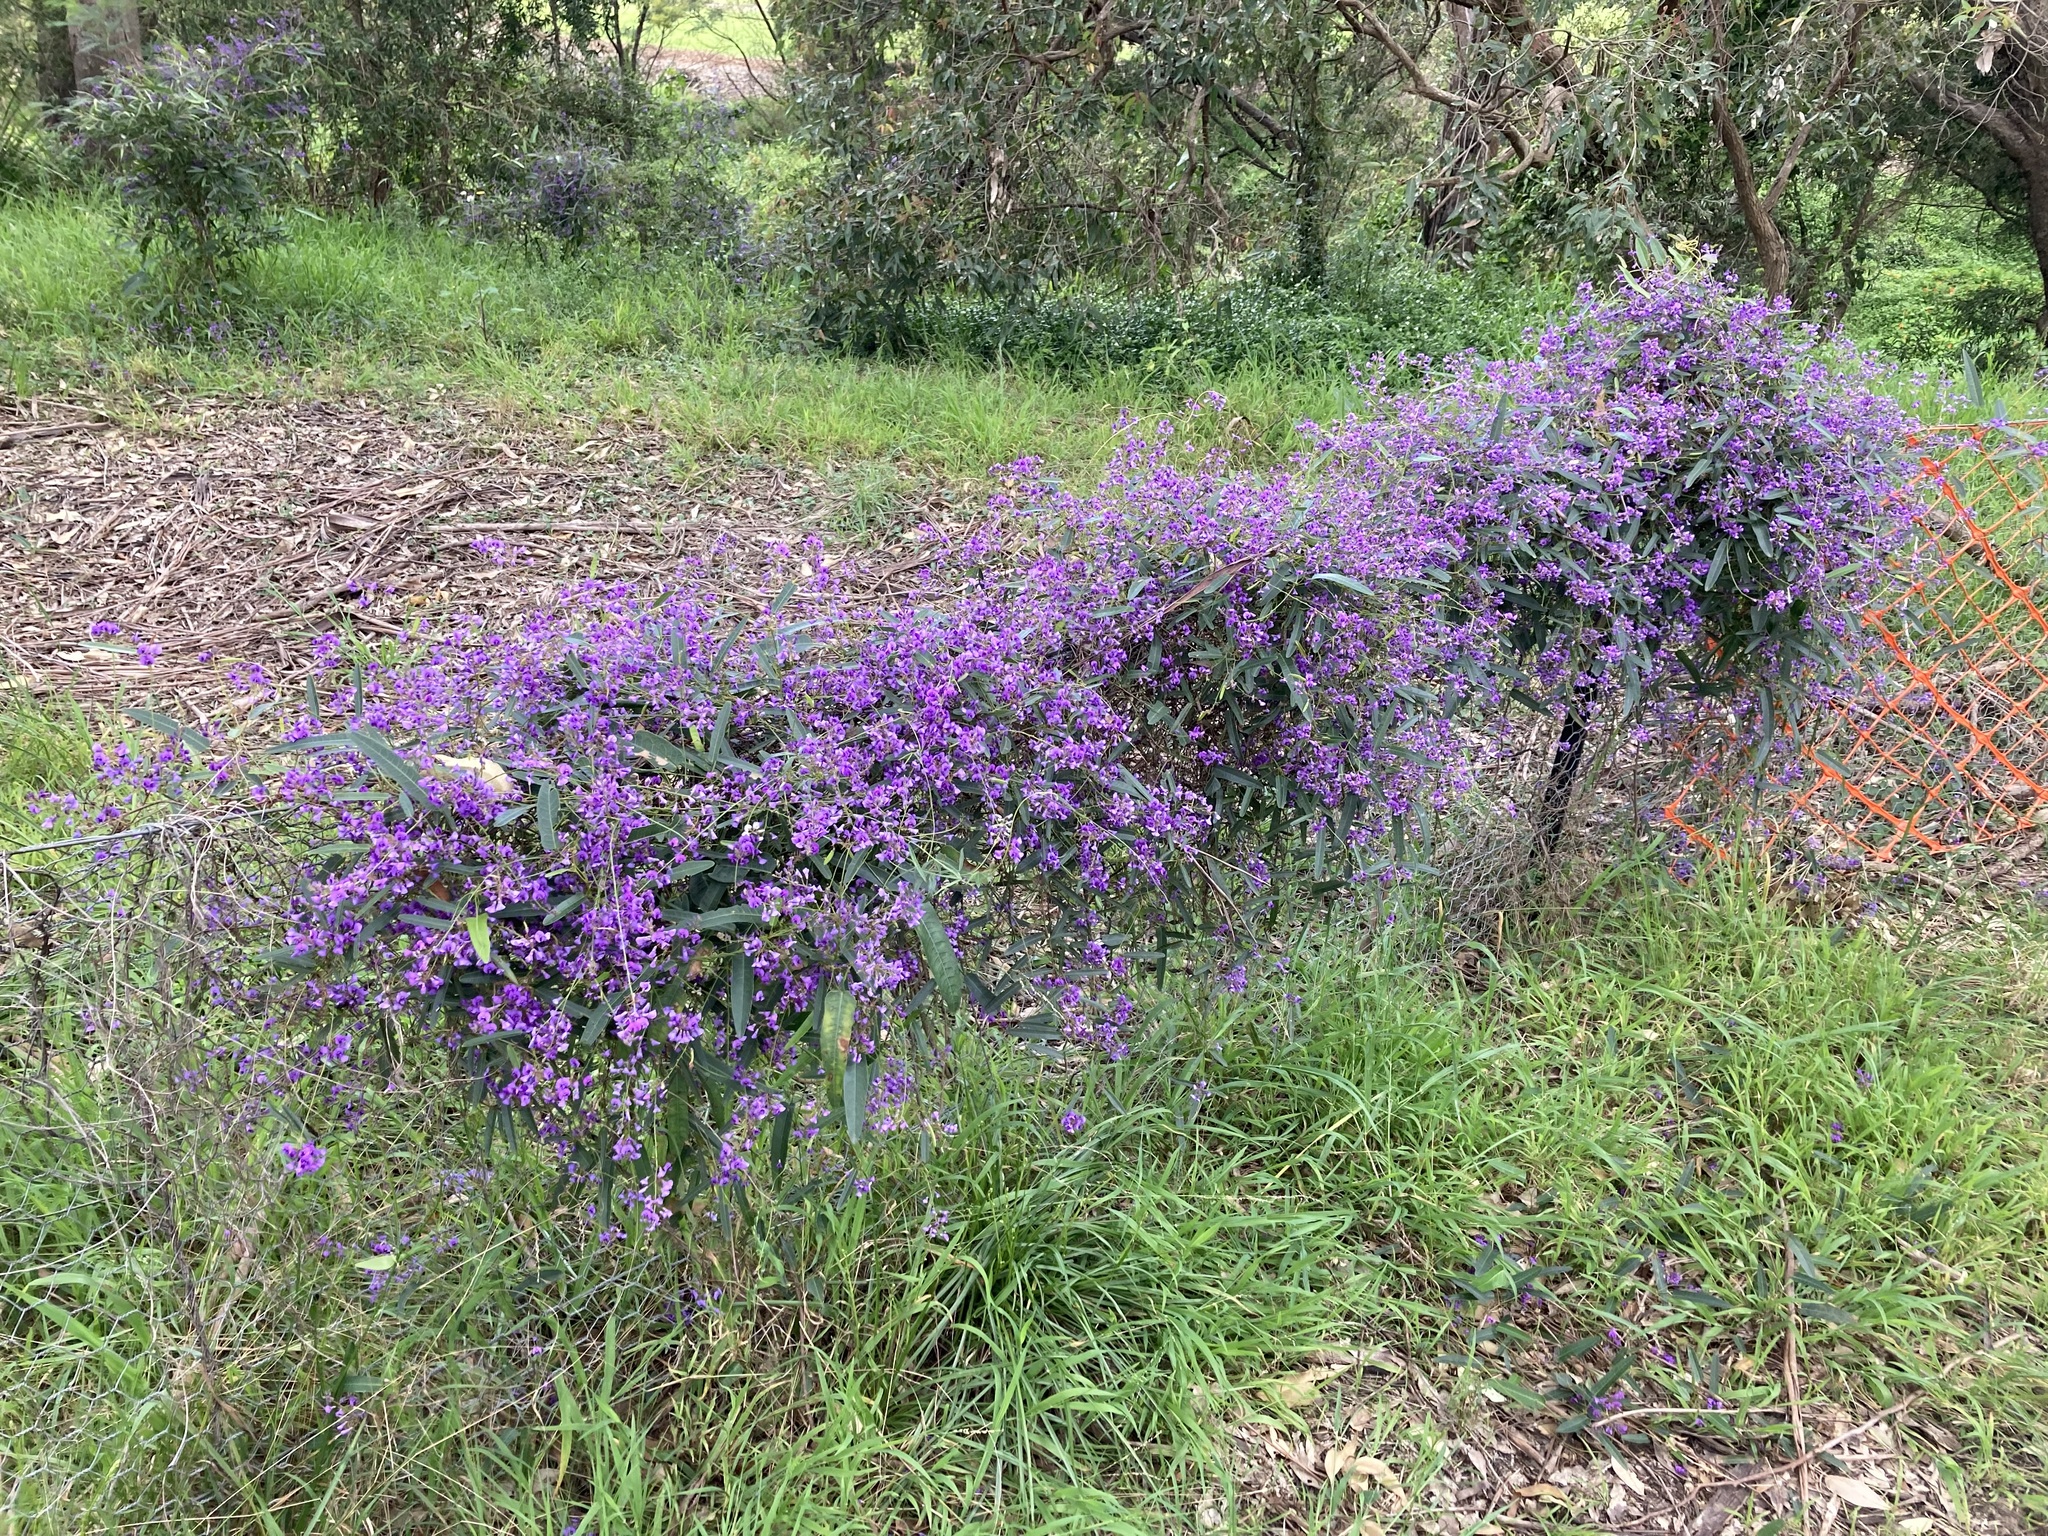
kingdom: Plantae
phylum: Tracheophyta
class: Magnoliopsida
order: Fabales
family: Fabaceae
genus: Hardenbergia
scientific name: Hardenbergia violacea
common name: Coral-pea
